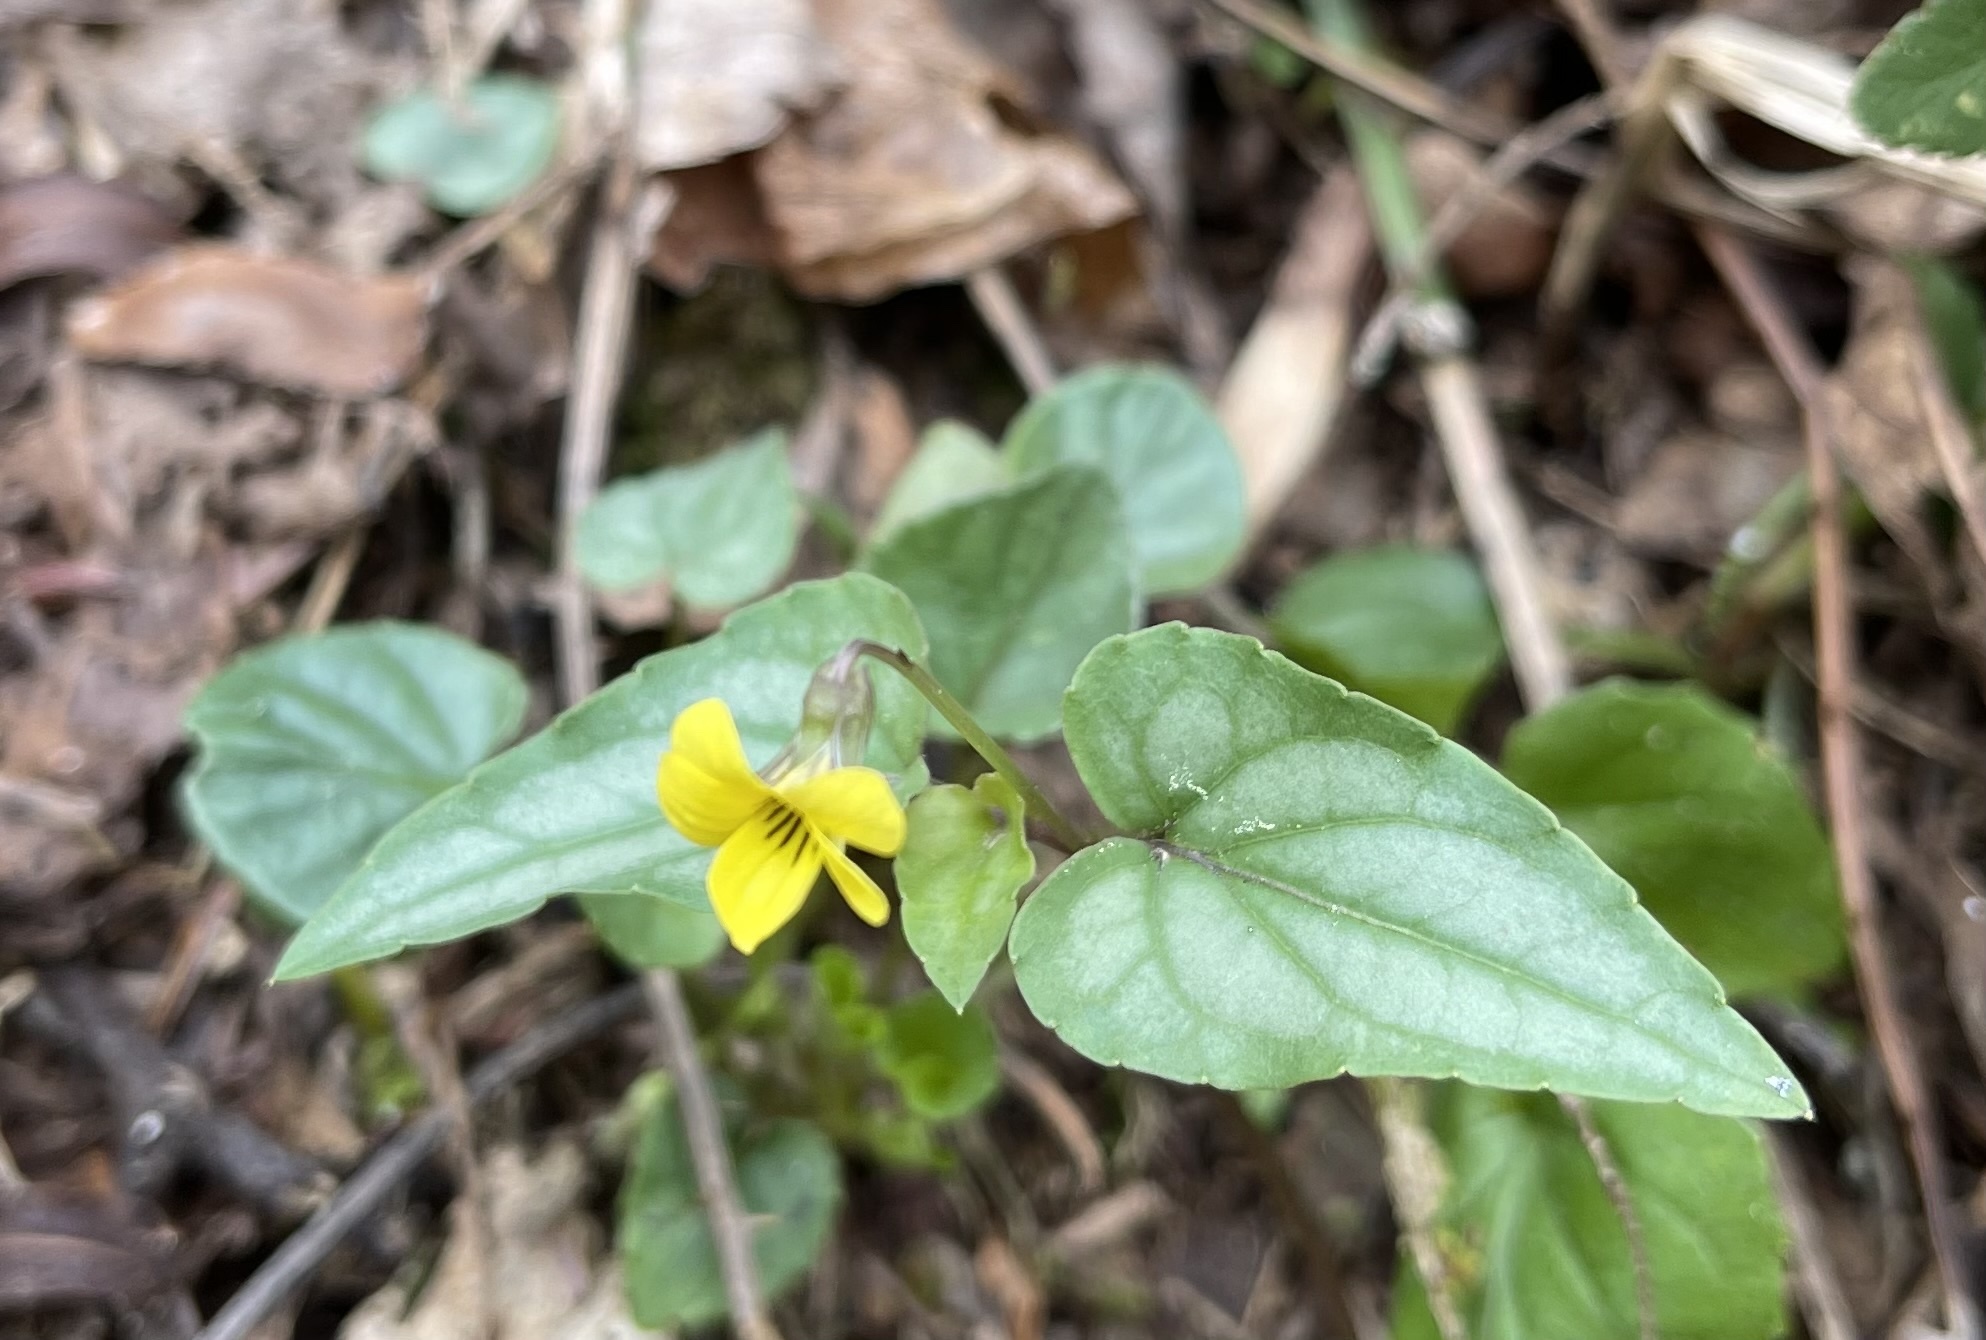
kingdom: Plantae
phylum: Tracheophyta
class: Magnoliopsida
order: Malpighiales
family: Violaceae
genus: Viola
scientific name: Viola hastata
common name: Spear-leaf violet
